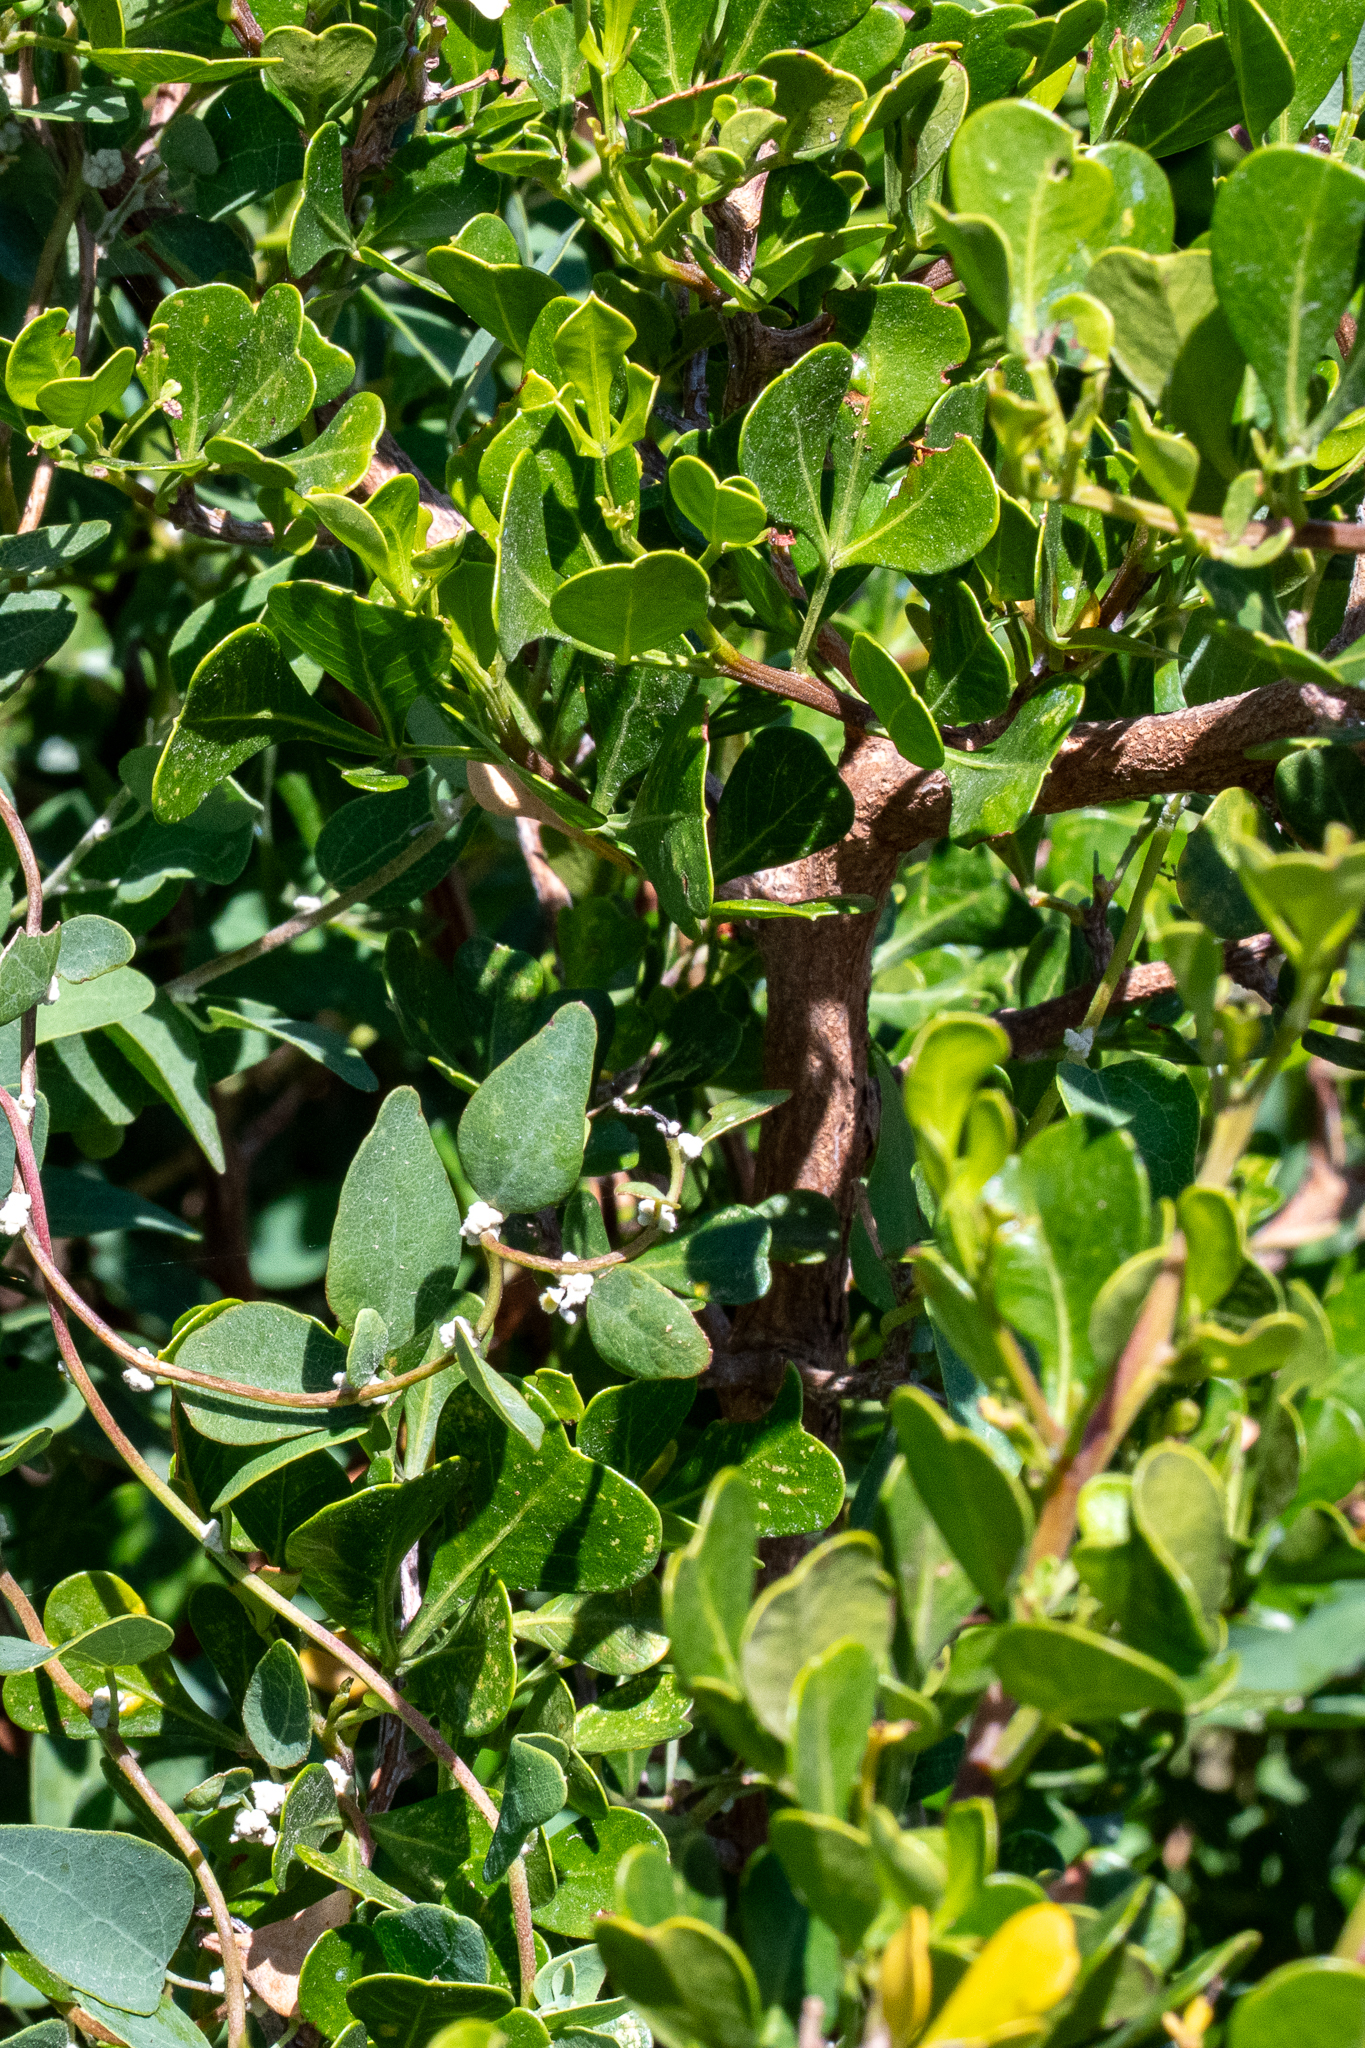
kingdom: Plantae
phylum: Tracheophyta
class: Magnoliopsida
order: Sapindales
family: Anacardiaceae
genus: Searsia
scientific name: Searsia glauca
